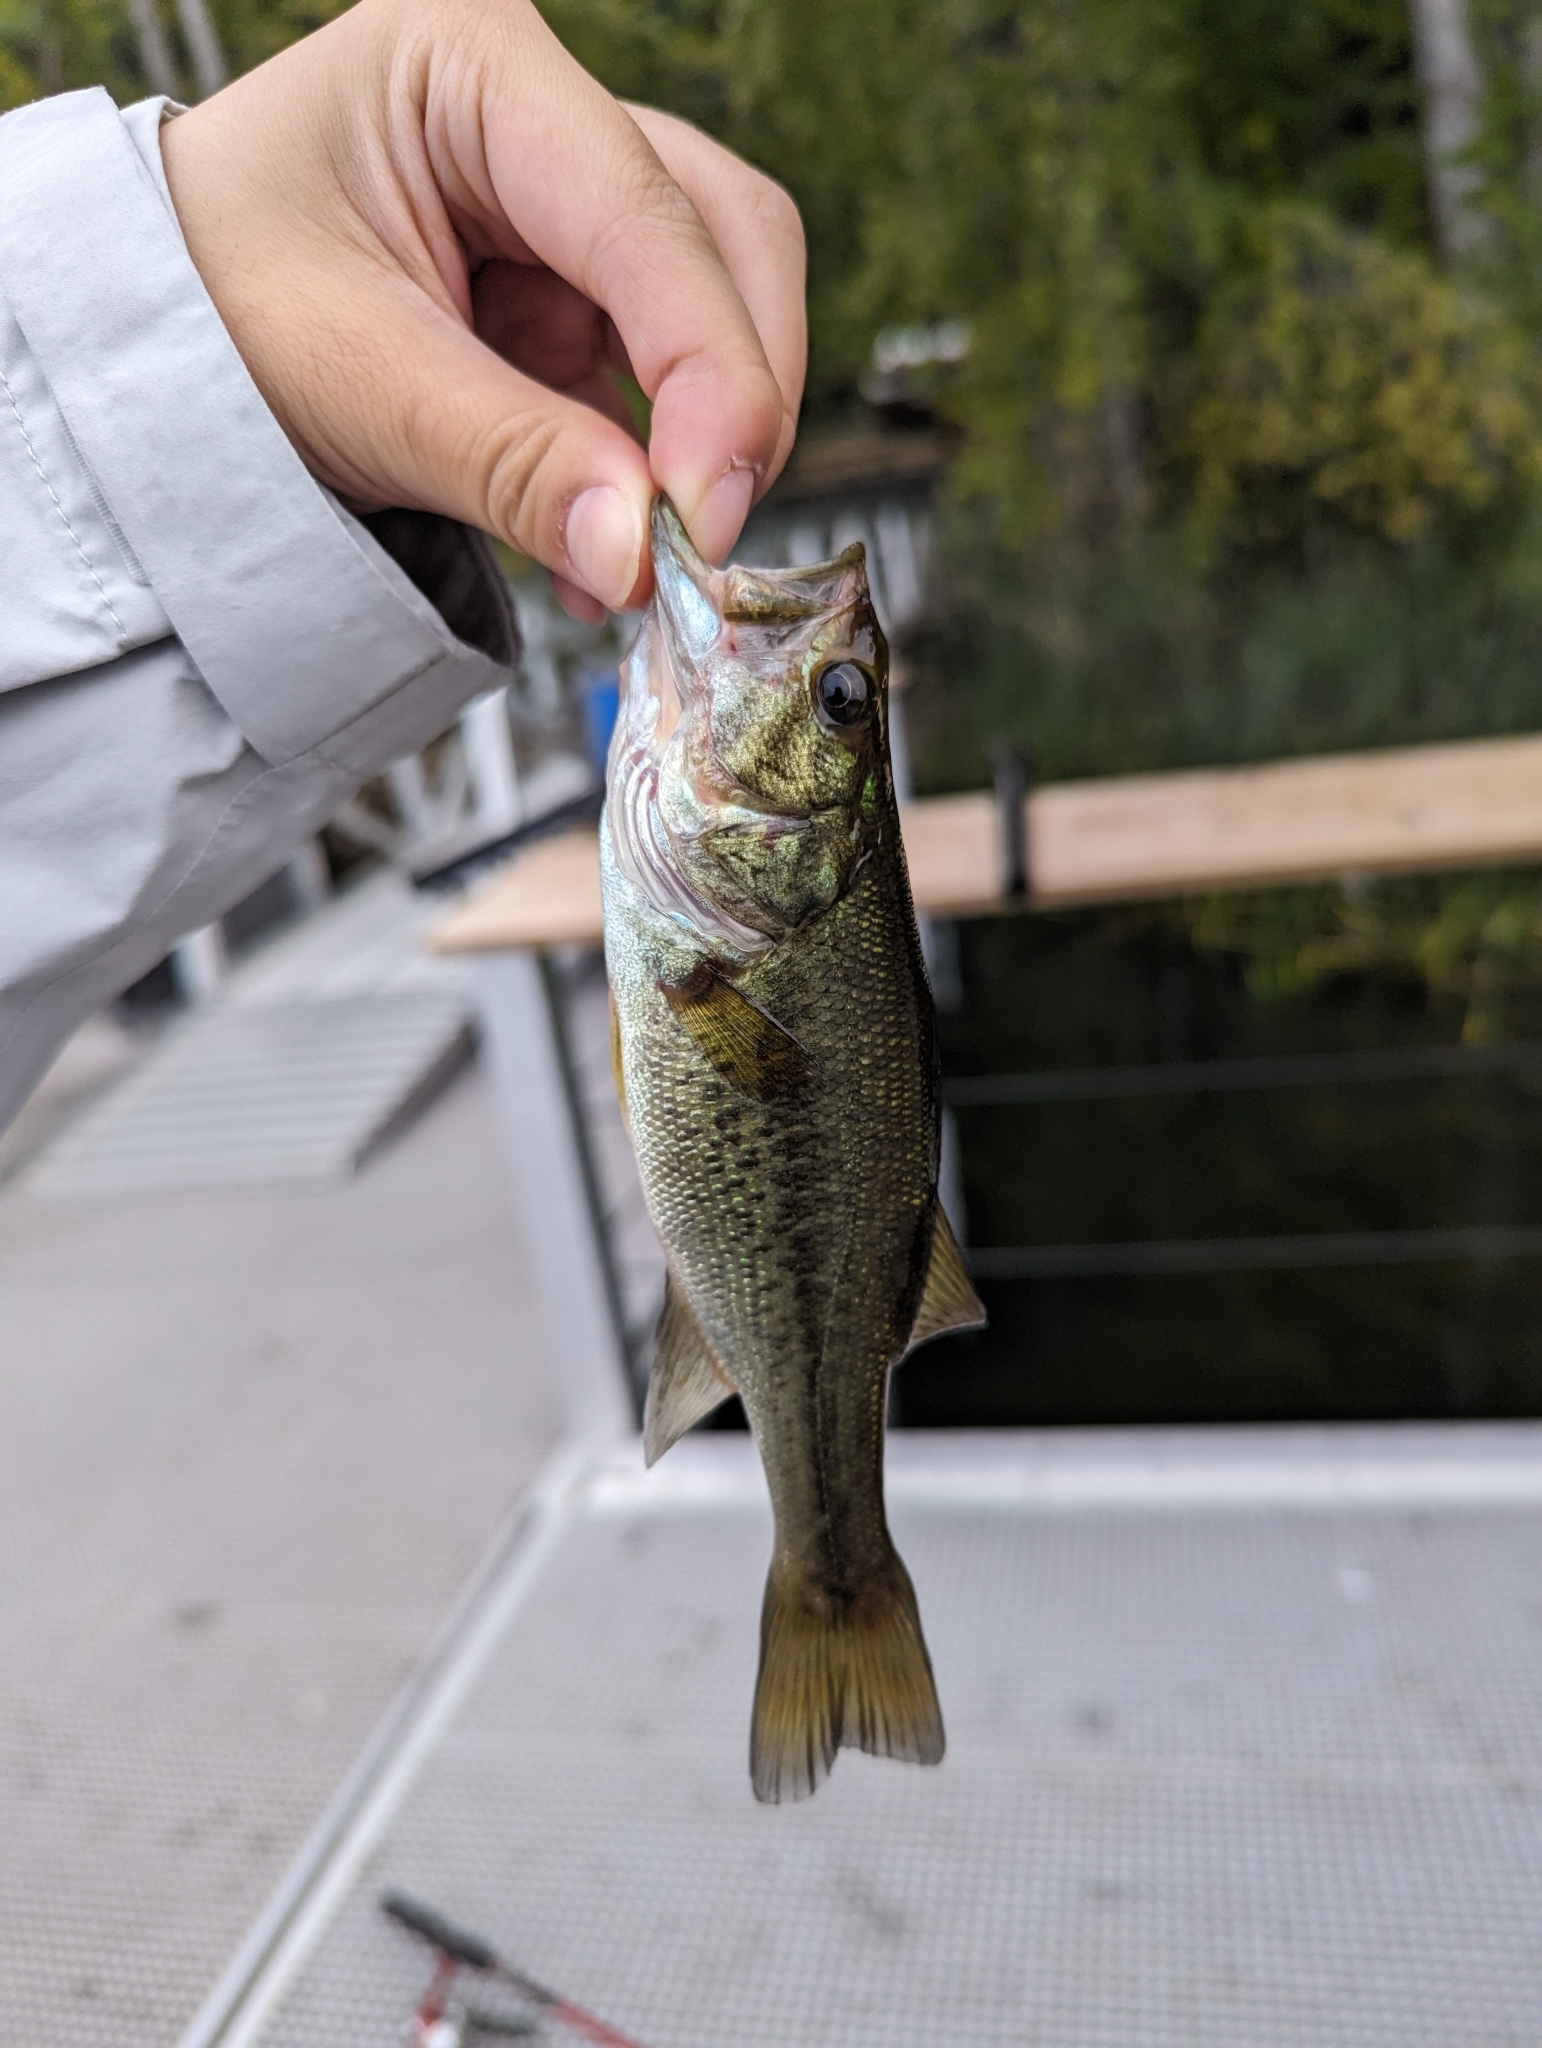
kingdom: Animalia
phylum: Chordata
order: Perciformes
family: Centrarchidae
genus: Micropterus
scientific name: Micropterus
